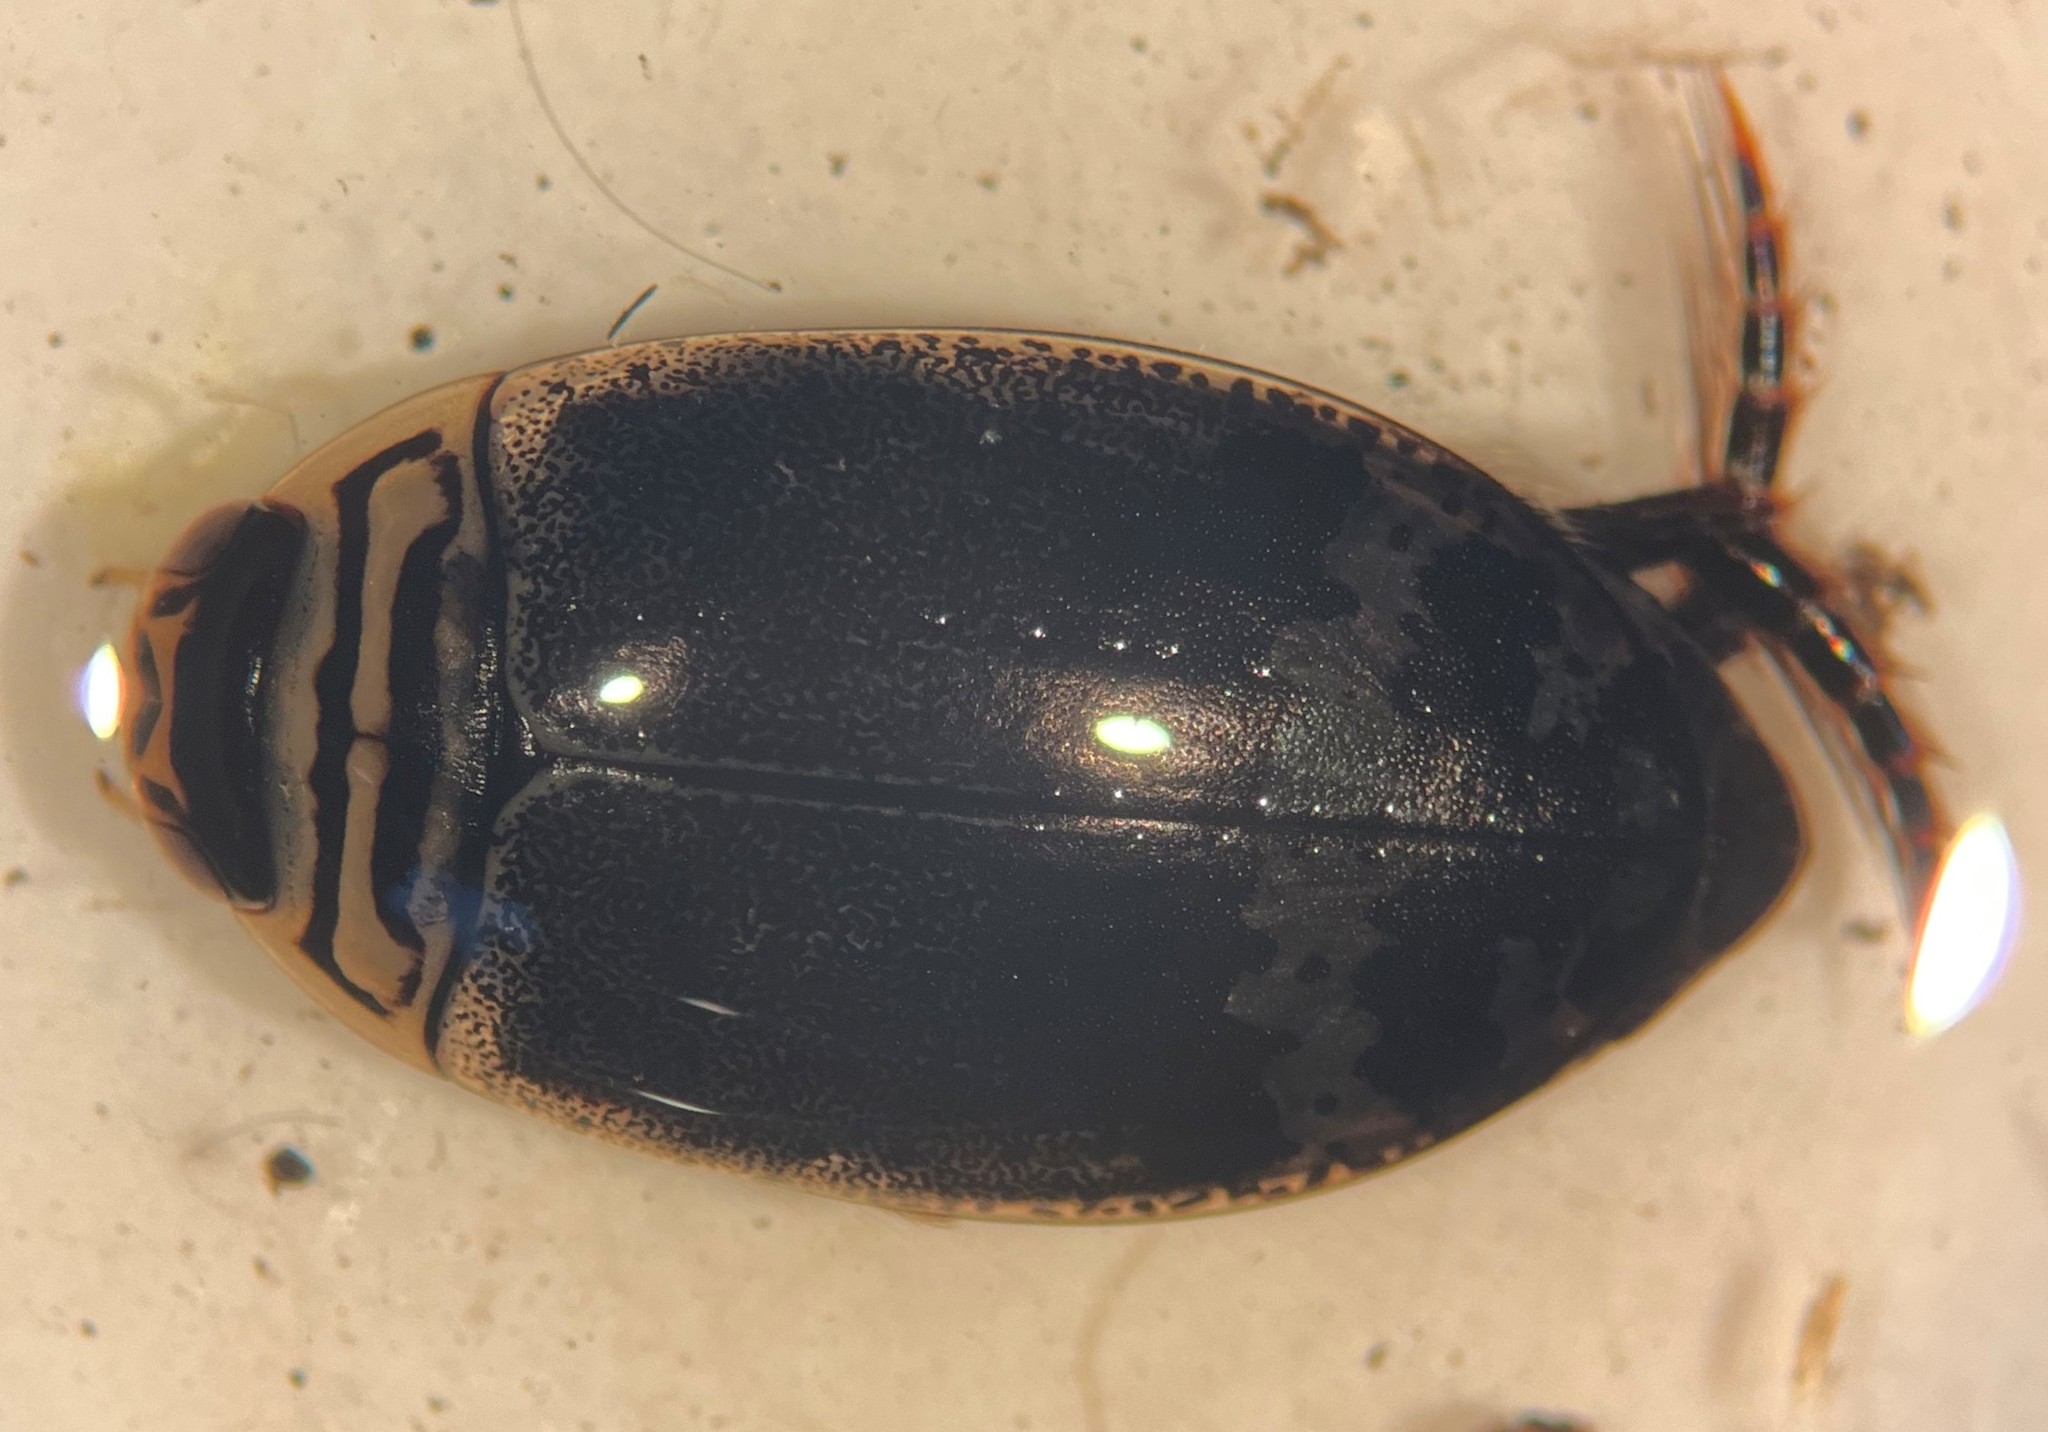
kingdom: Animalia
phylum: Arthropoda
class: Insecta
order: Coleoptera
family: Dytiscidae
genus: Acilius
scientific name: Acilius mediatus
